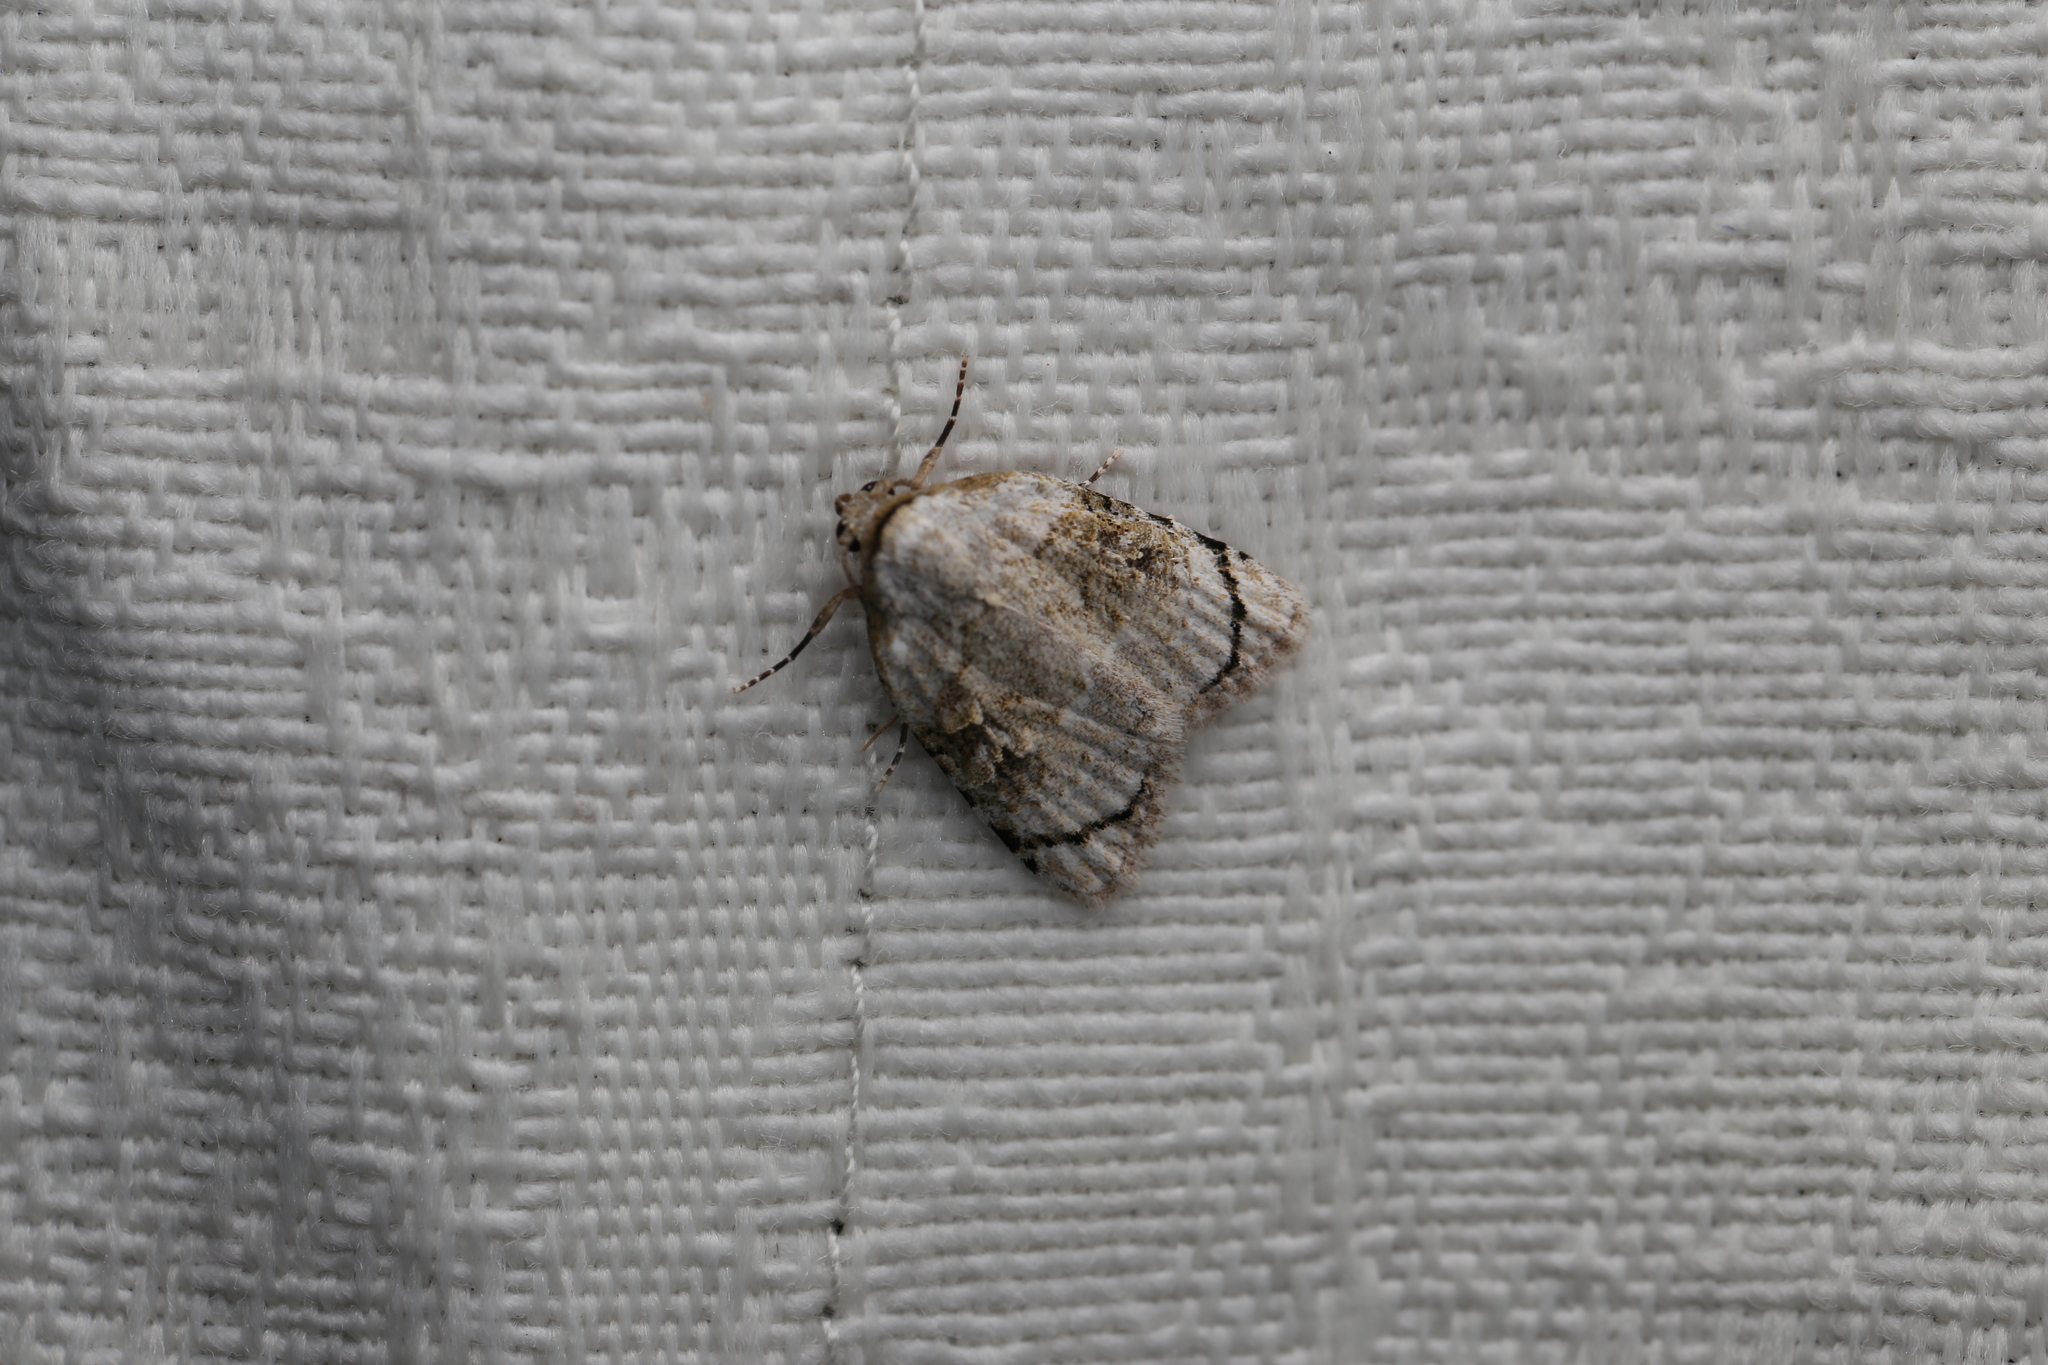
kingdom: Animalia
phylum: Arthropoda
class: Insecta
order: Lepidoptera
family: Nolidae
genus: Nola
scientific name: Nola zaplethes
